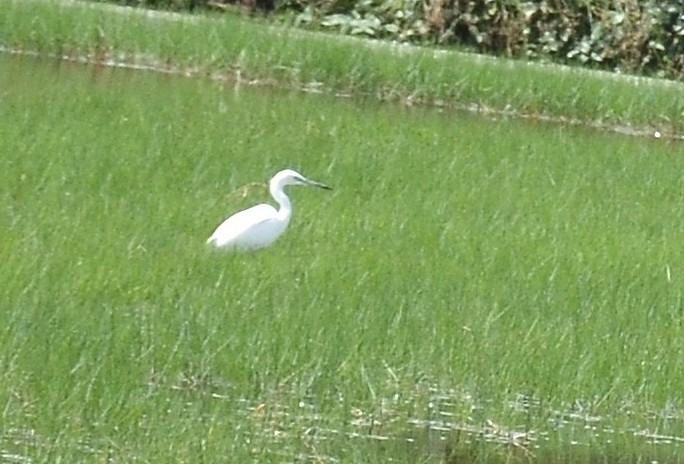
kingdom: Animalia
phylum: Chordata
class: Aves
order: Pelecaniformes
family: Ardeidae
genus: Egretta
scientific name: Egretta garzetta
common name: Little egret
